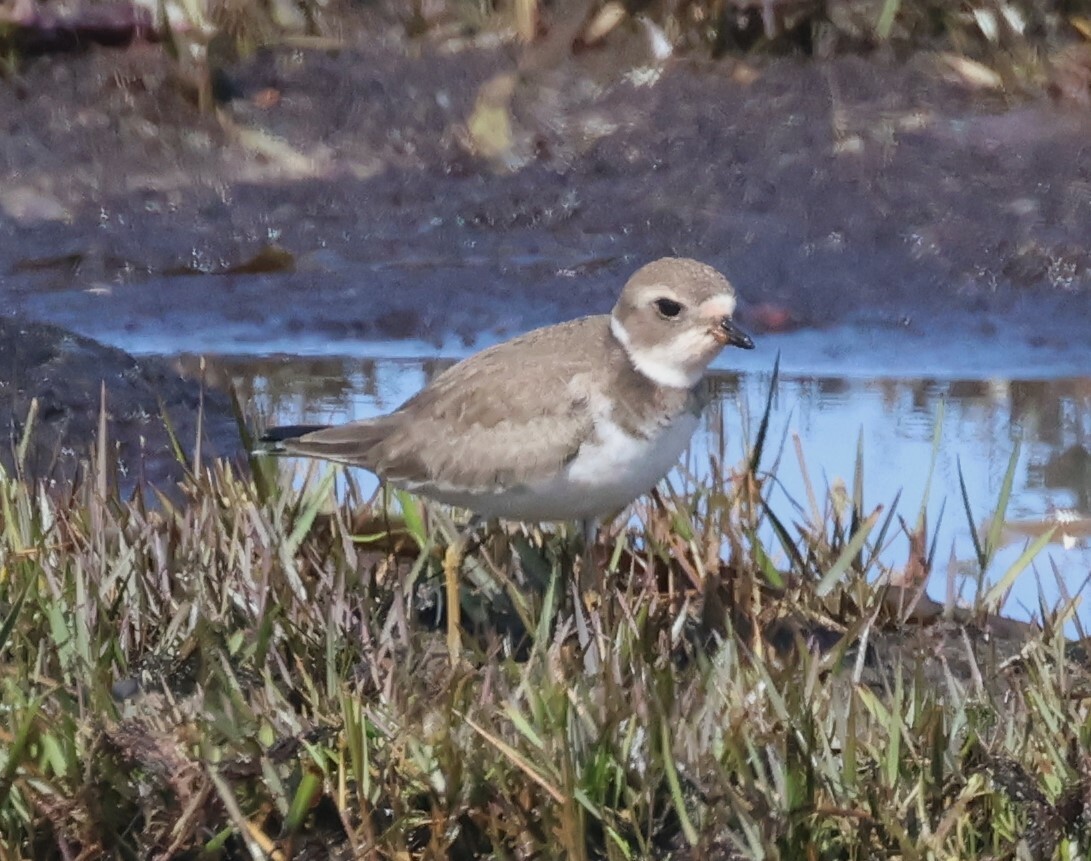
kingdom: Animalia
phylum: Chordata
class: Aves
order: Charadriiformes
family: Charadriidae
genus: Charadrius
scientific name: Charadrius semipalmatus
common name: Semipalmated plover
